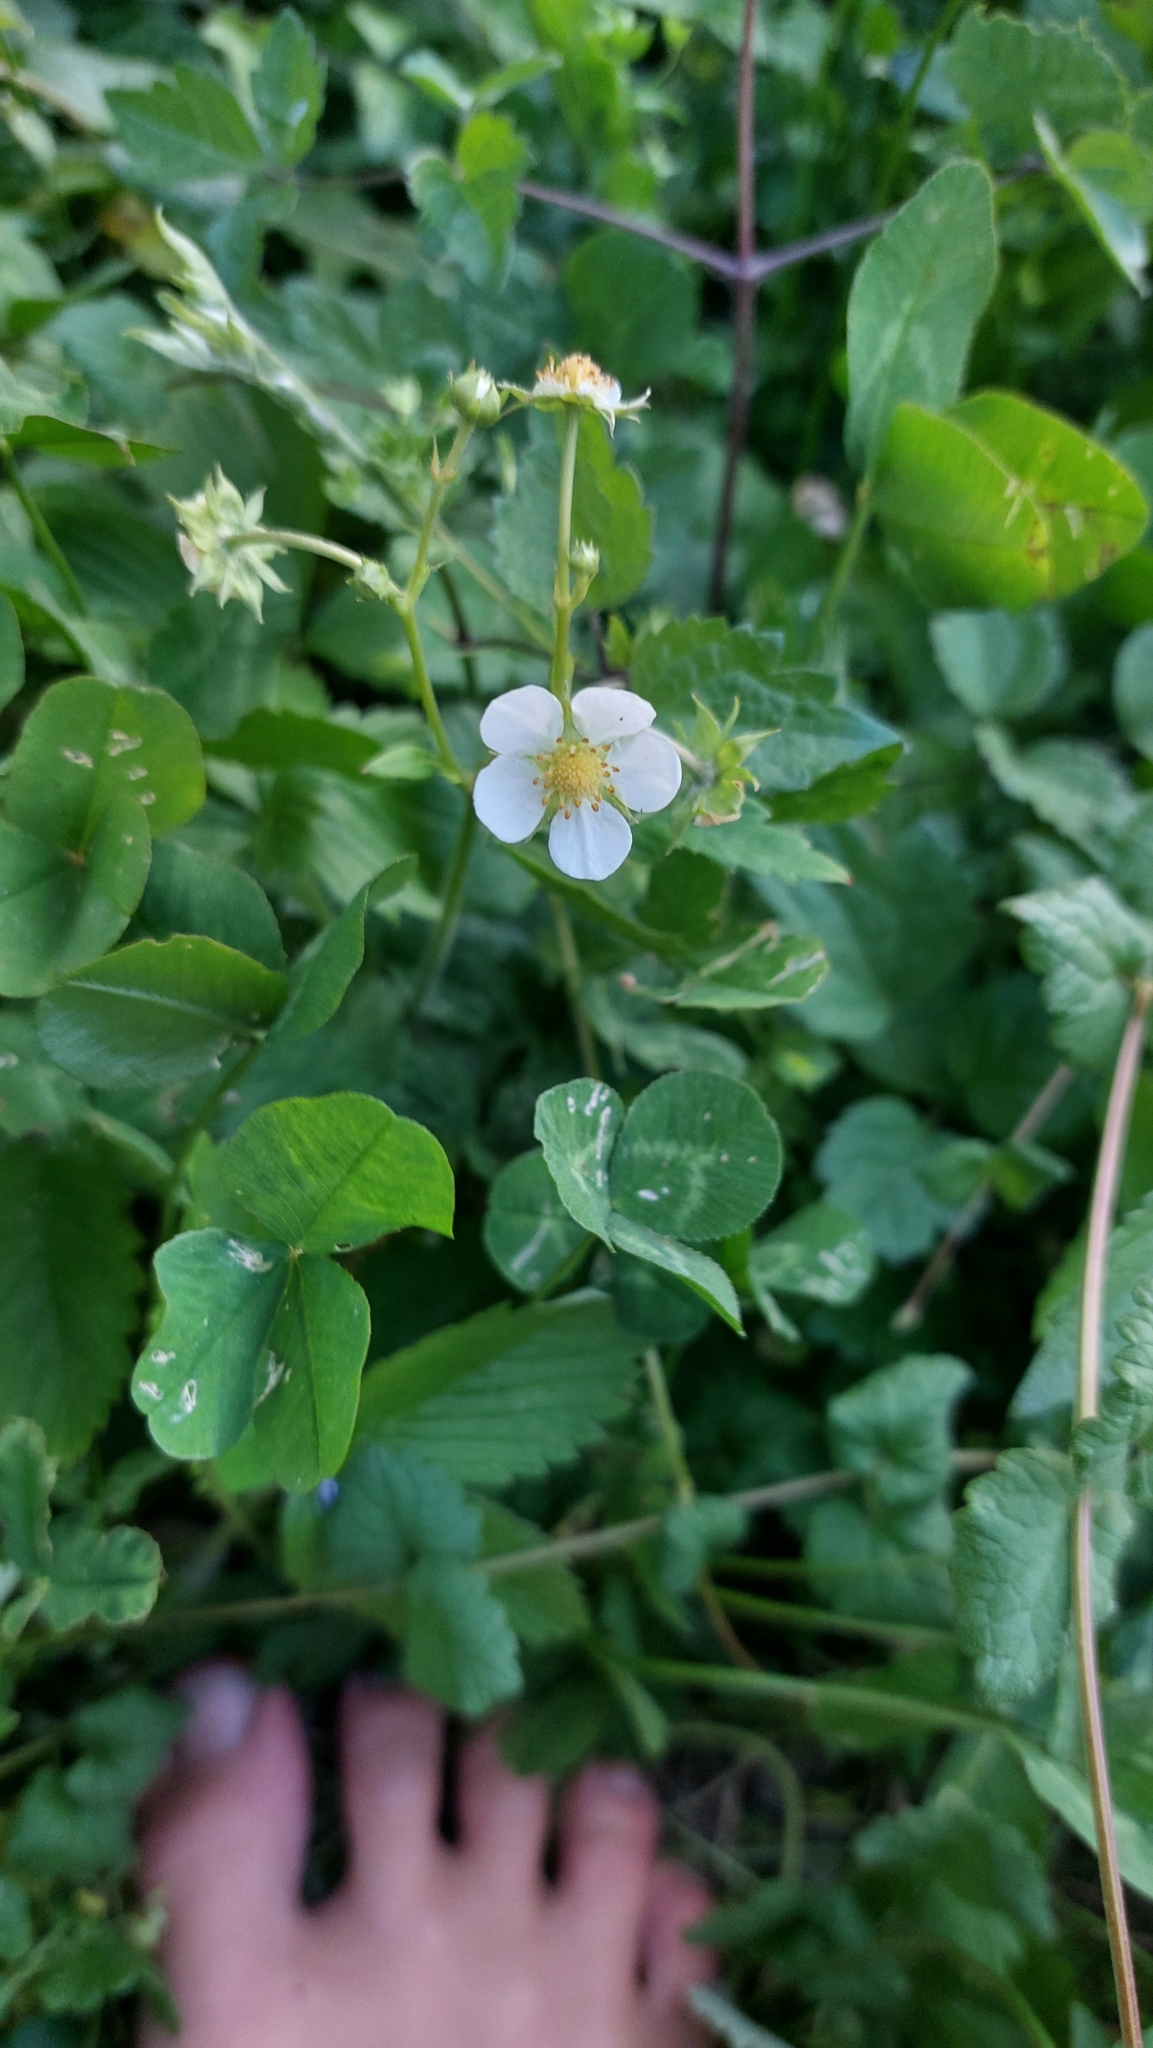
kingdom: Plantae
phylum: Tracheophyta
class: Magnoliopsida
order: Rosales
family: Rosaceae
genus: Fragaria
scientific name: Fragaria vesca
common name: Wild strawberry
